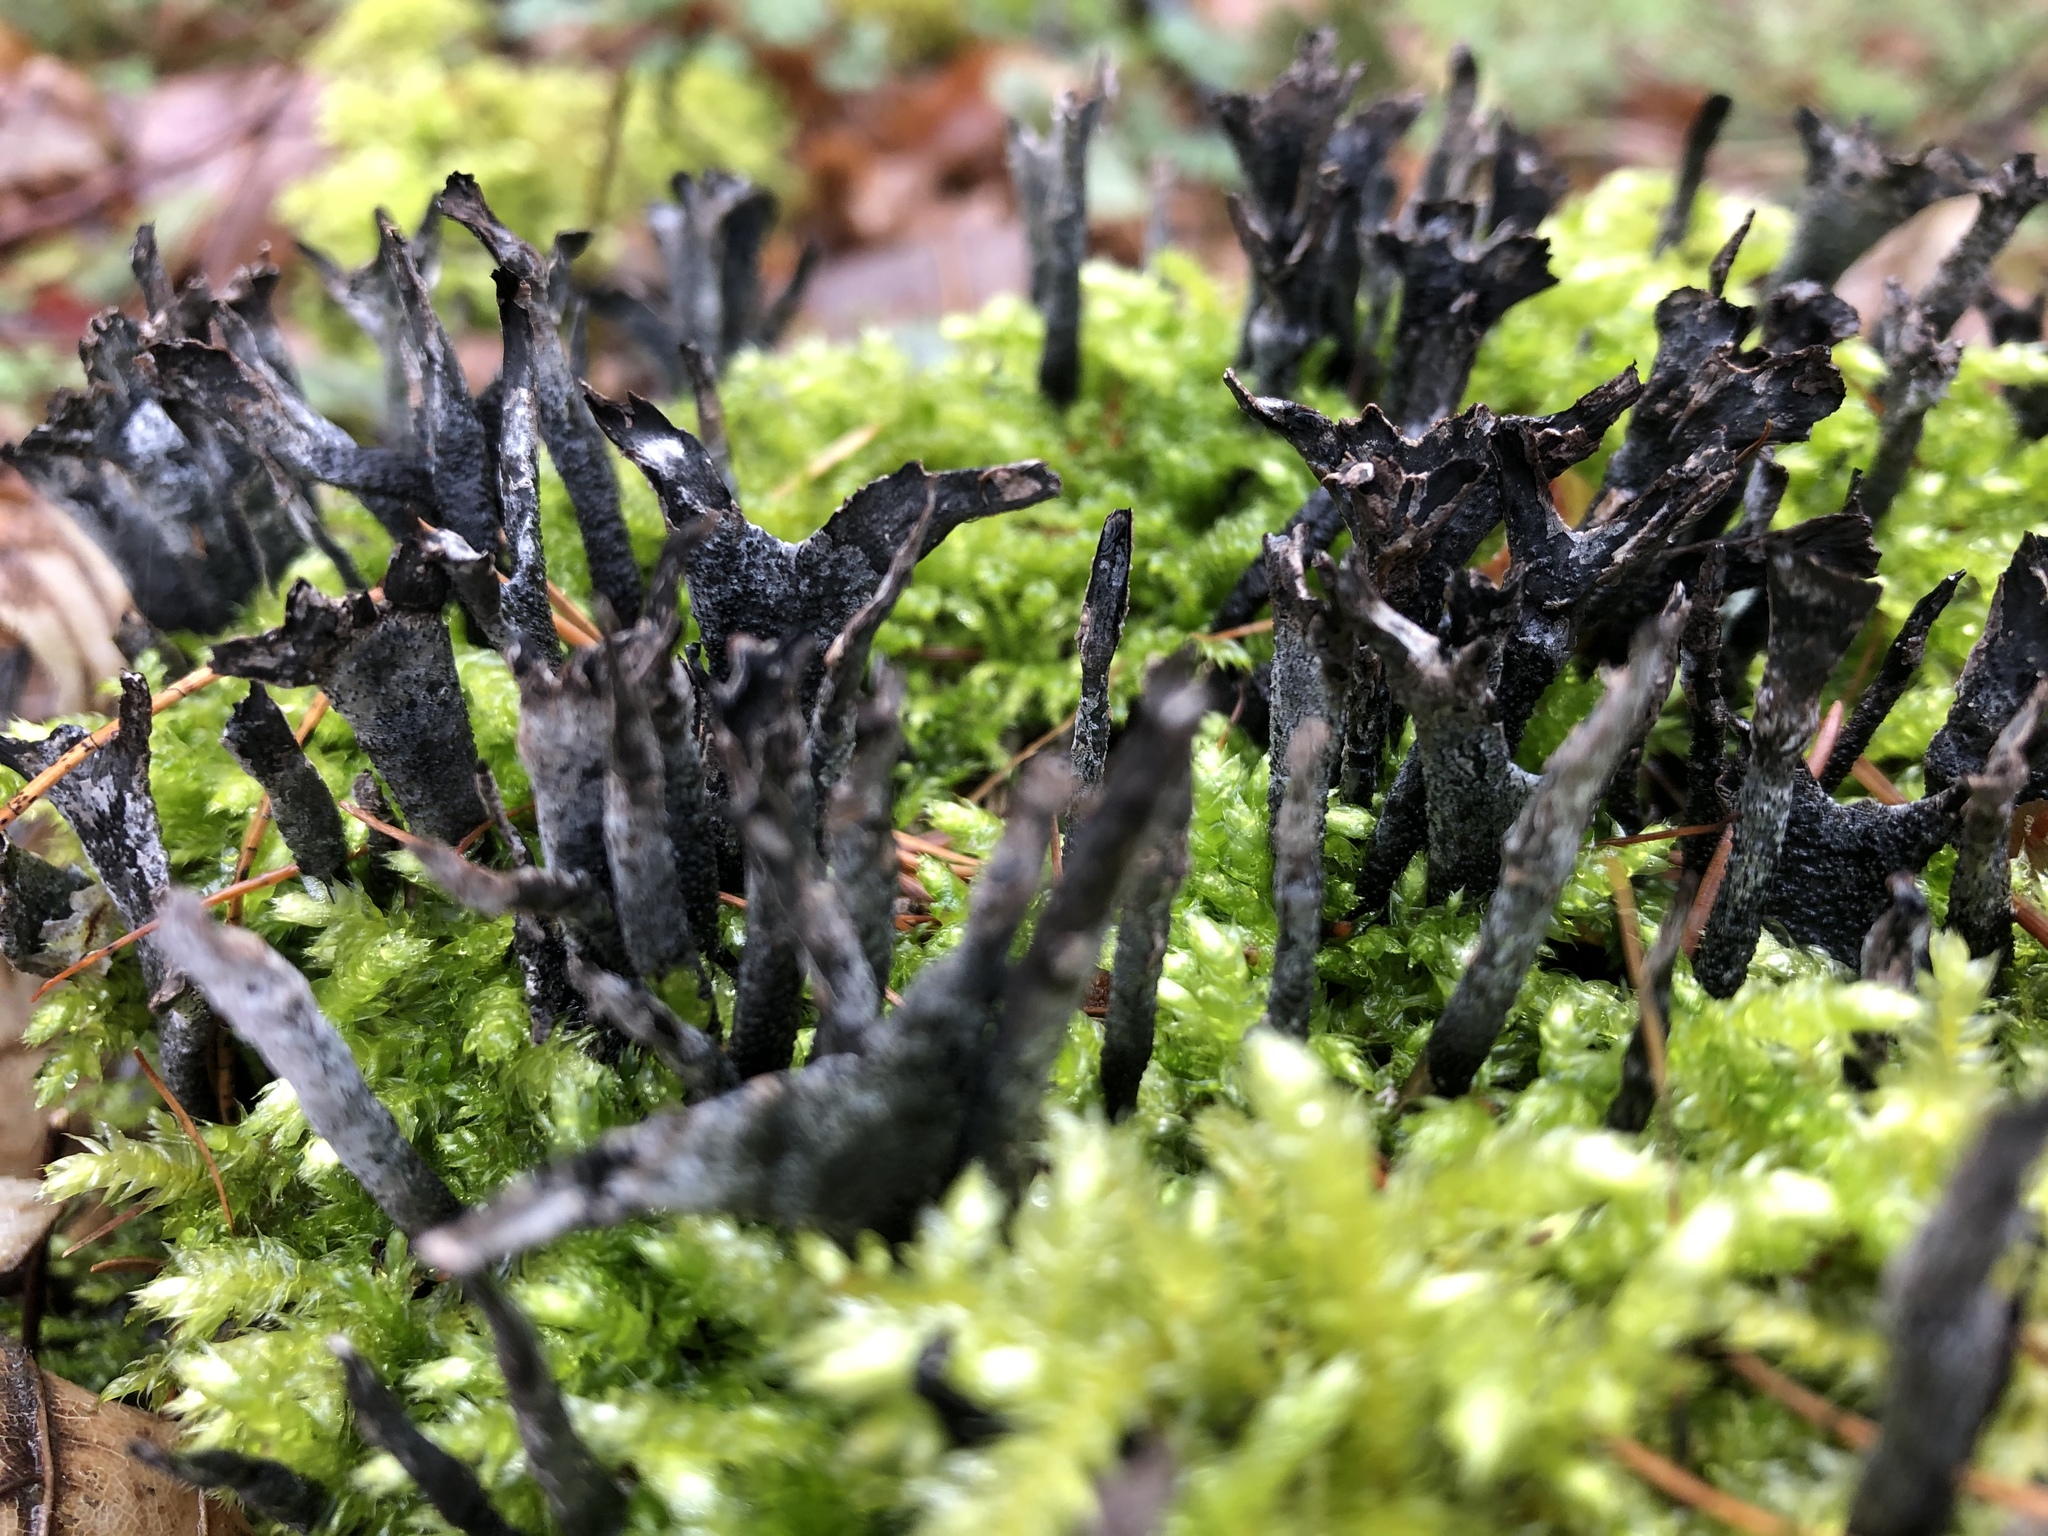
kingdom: Fungi
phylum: Ascomycota
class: Sordariomycetes
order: Xylariales
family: Xylariaceae
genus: Xylaria
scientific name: Xylaria hypoxylon
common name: Candle-snuff fungus
